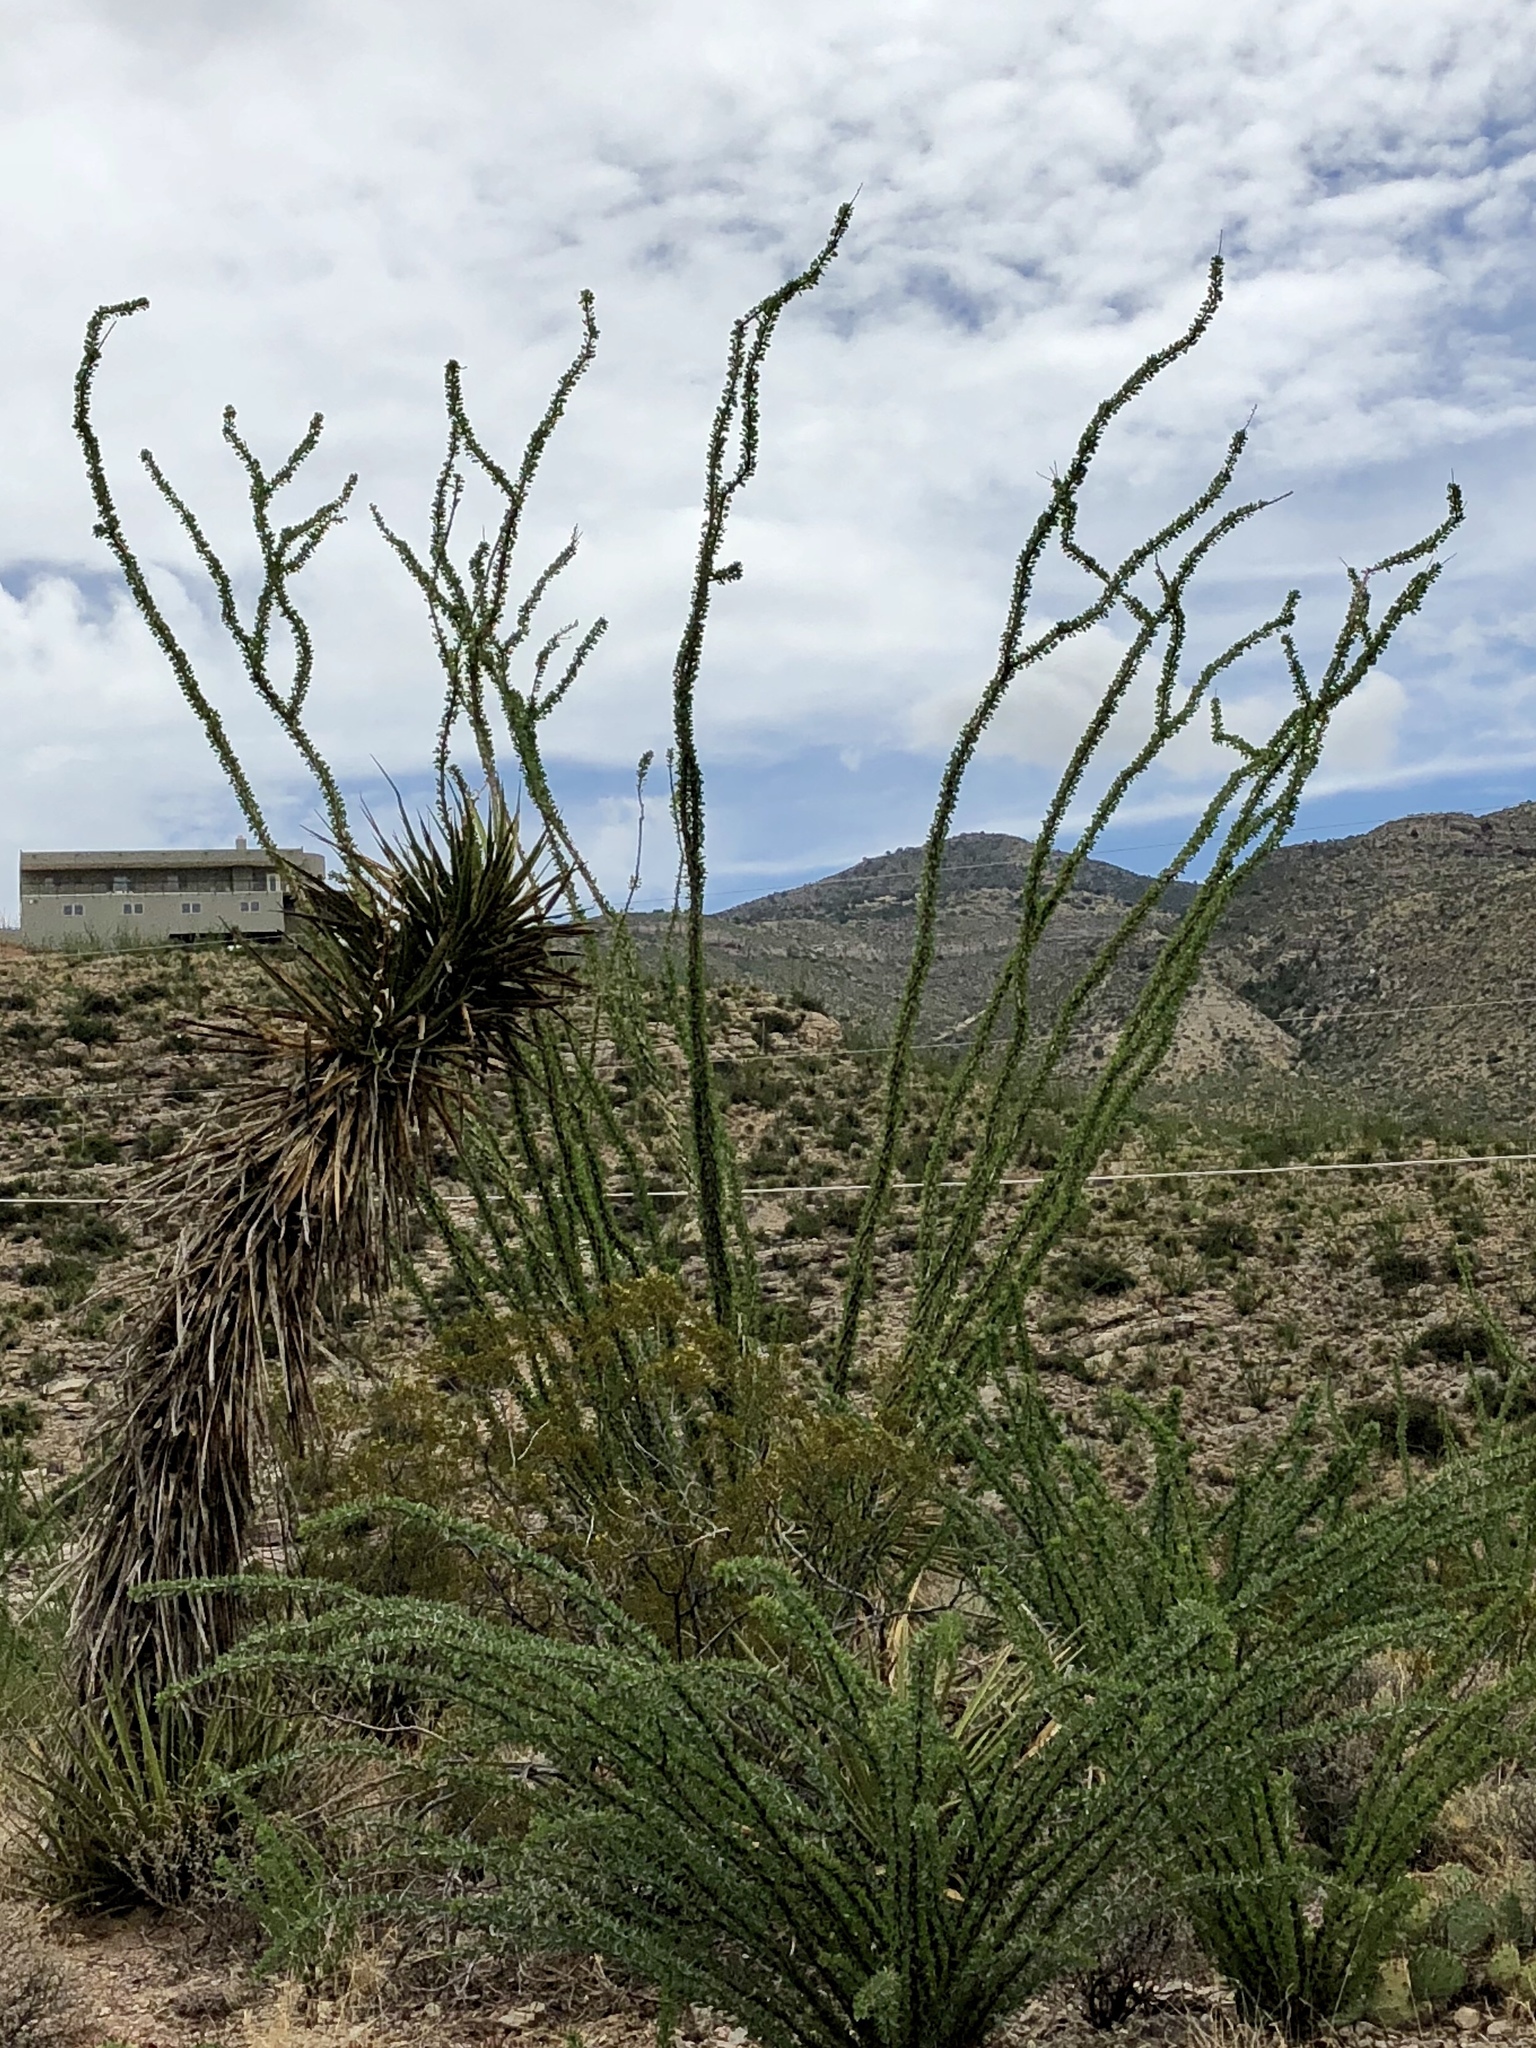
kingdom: Plantae
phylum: Tracheophyta
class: Magnoliopsida
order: Ericales
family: Fouquieriaceae
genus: Fouquieria
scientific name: Fouquieria splendens
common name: Vine-cactus
